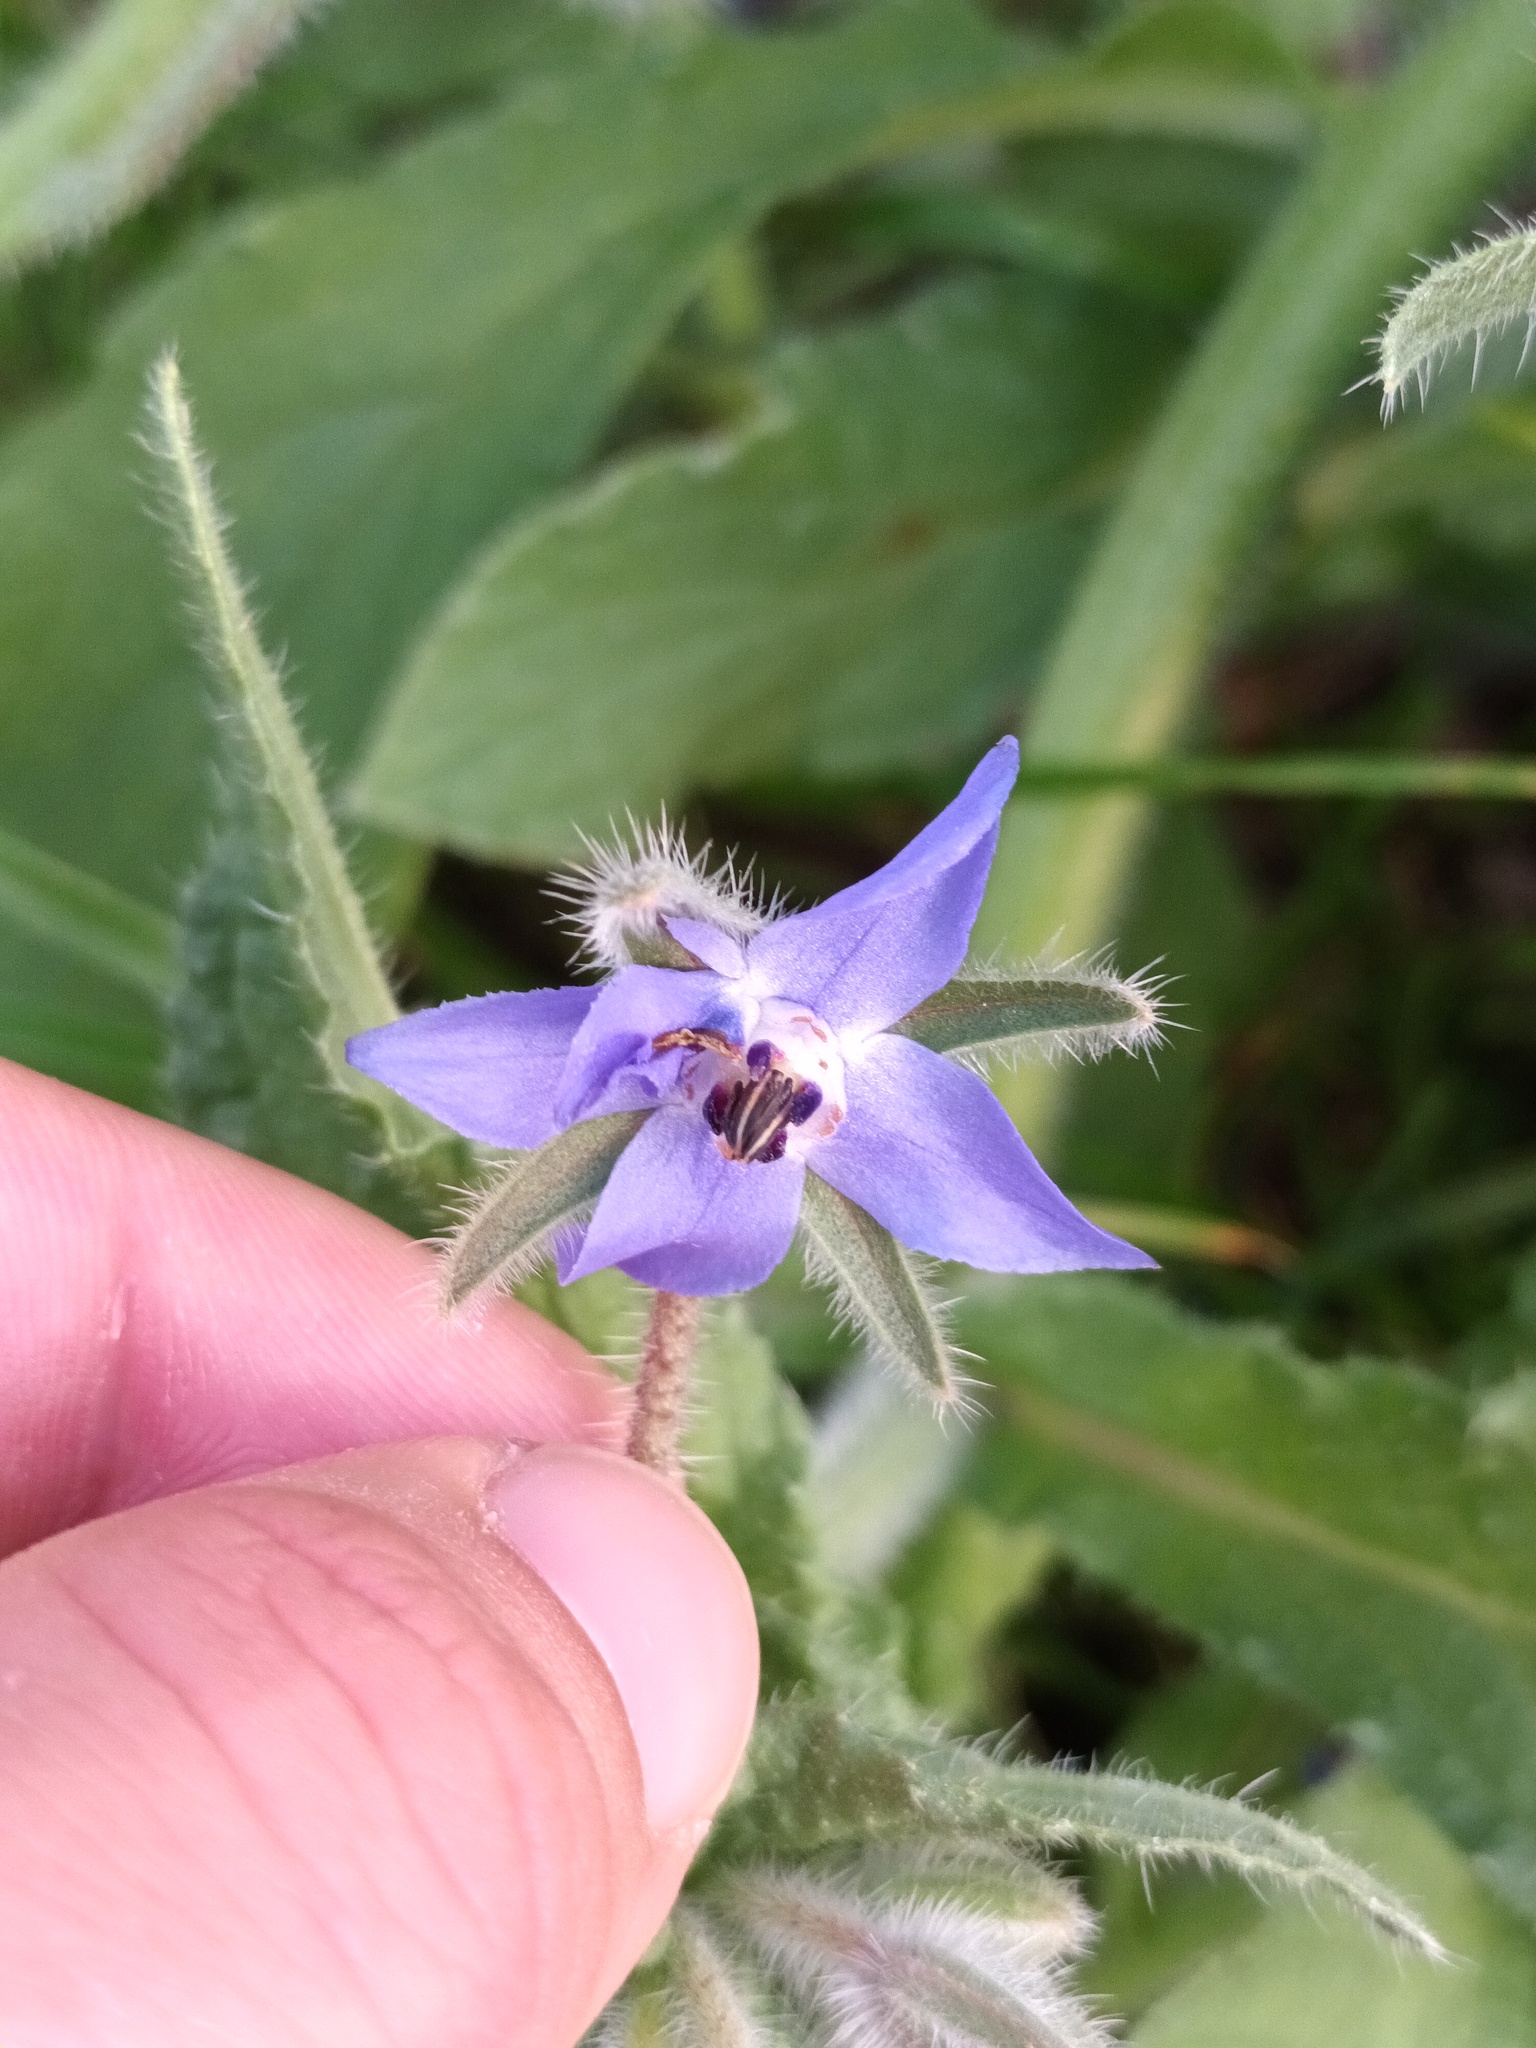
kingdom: Plantae
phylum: Tracheophyta
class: Magnoliopsida
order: Boraginales
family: Boraginaceae
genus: Borago
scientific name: Borago officinalis
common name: Borage
